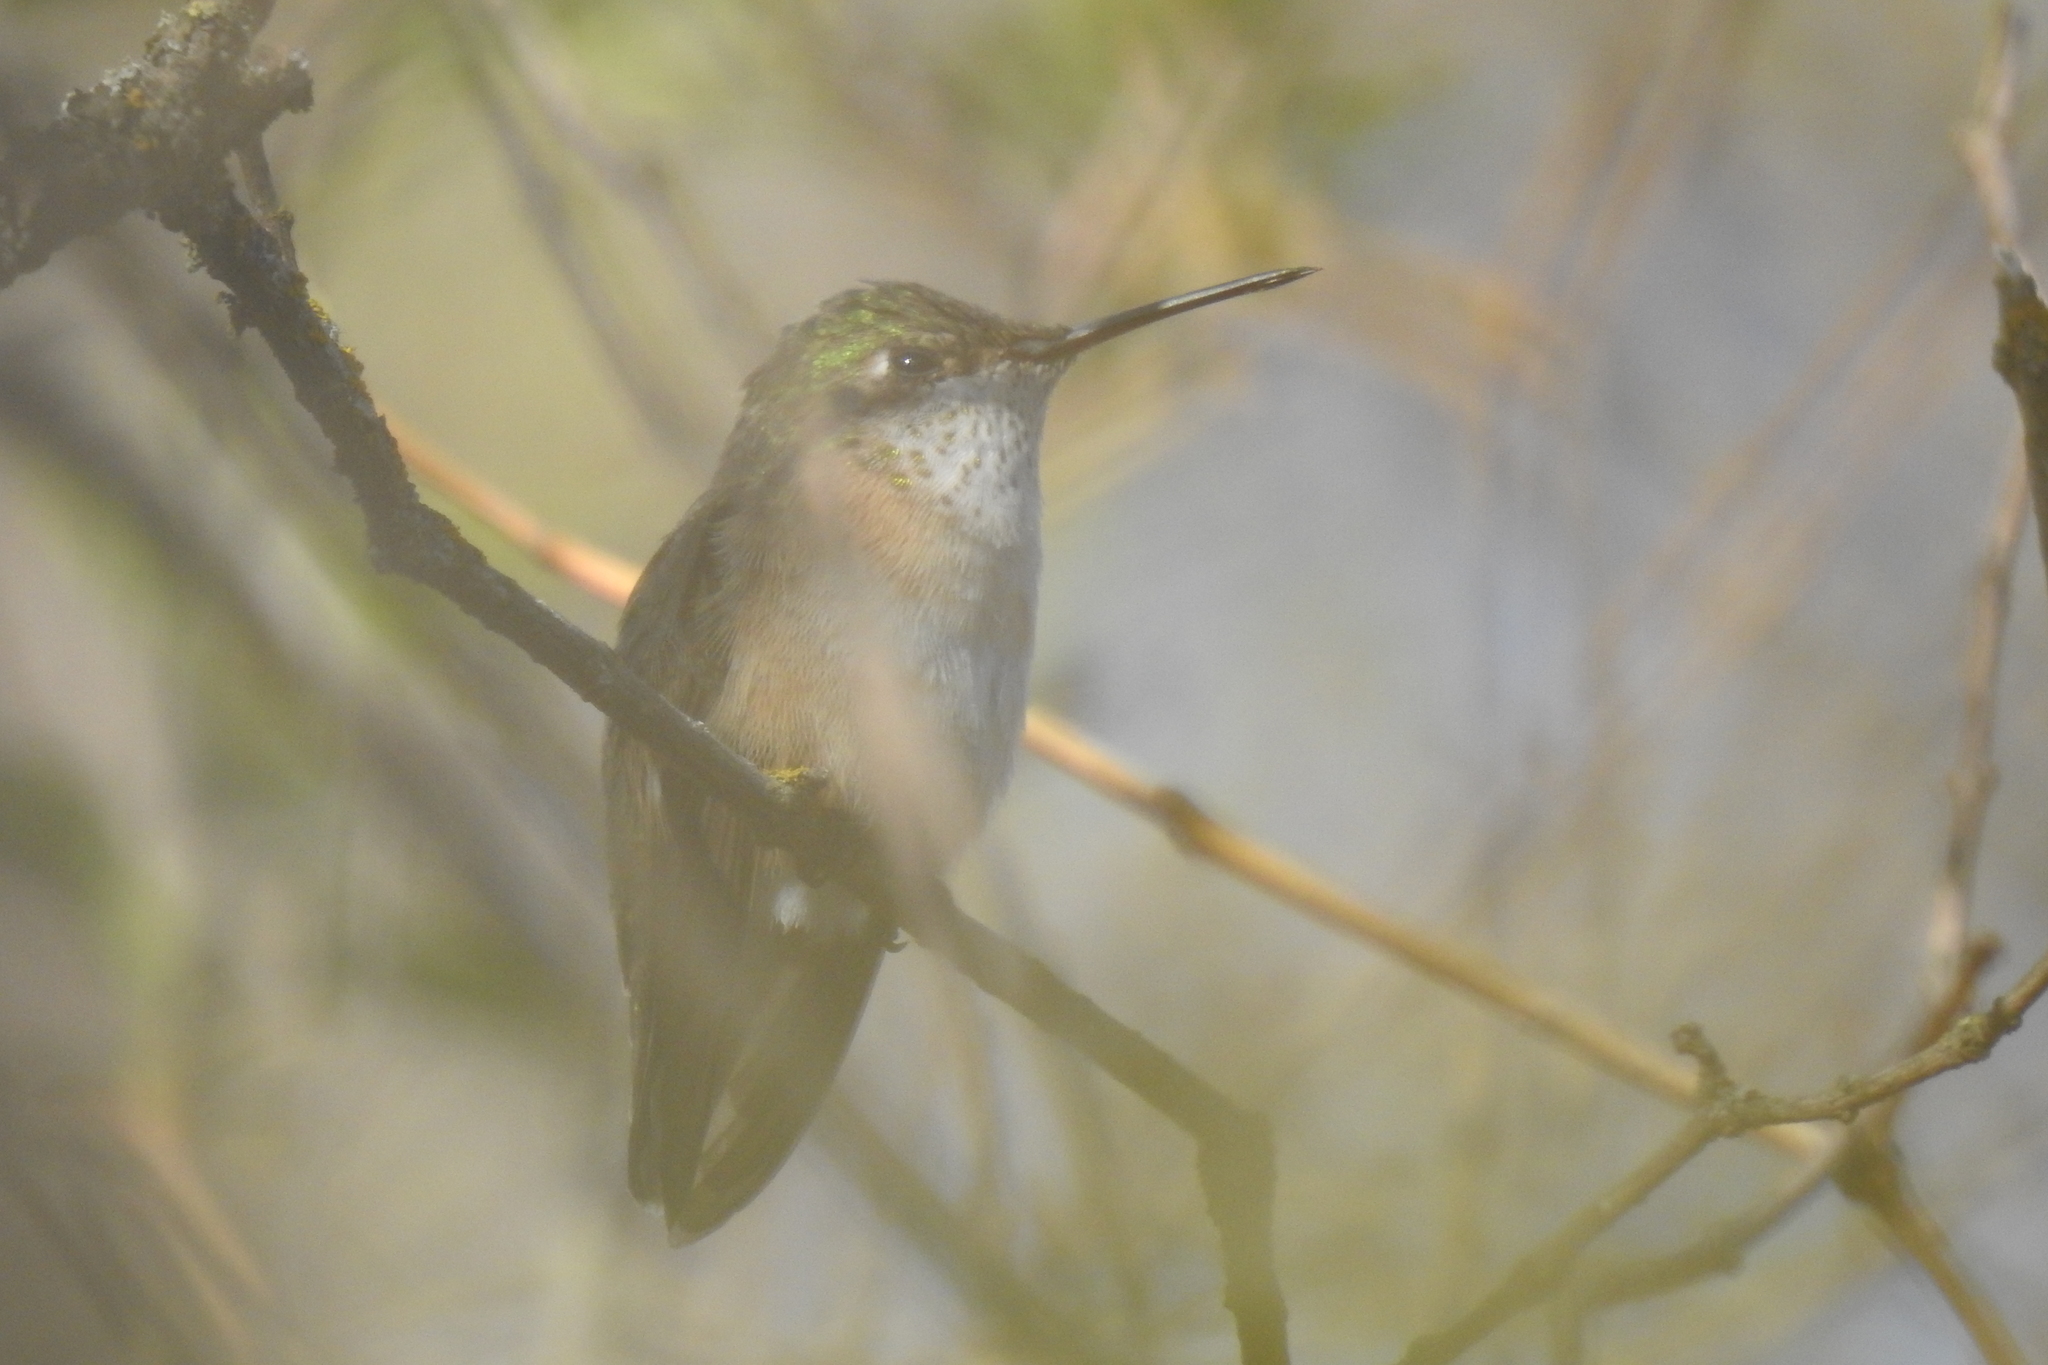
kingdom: Animalia
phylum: Chordata
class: Aves
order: Apodiformes
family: Trochilidae
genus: Selasphorus
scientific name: Selasphorus calliope
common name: Calliope hummingbird
